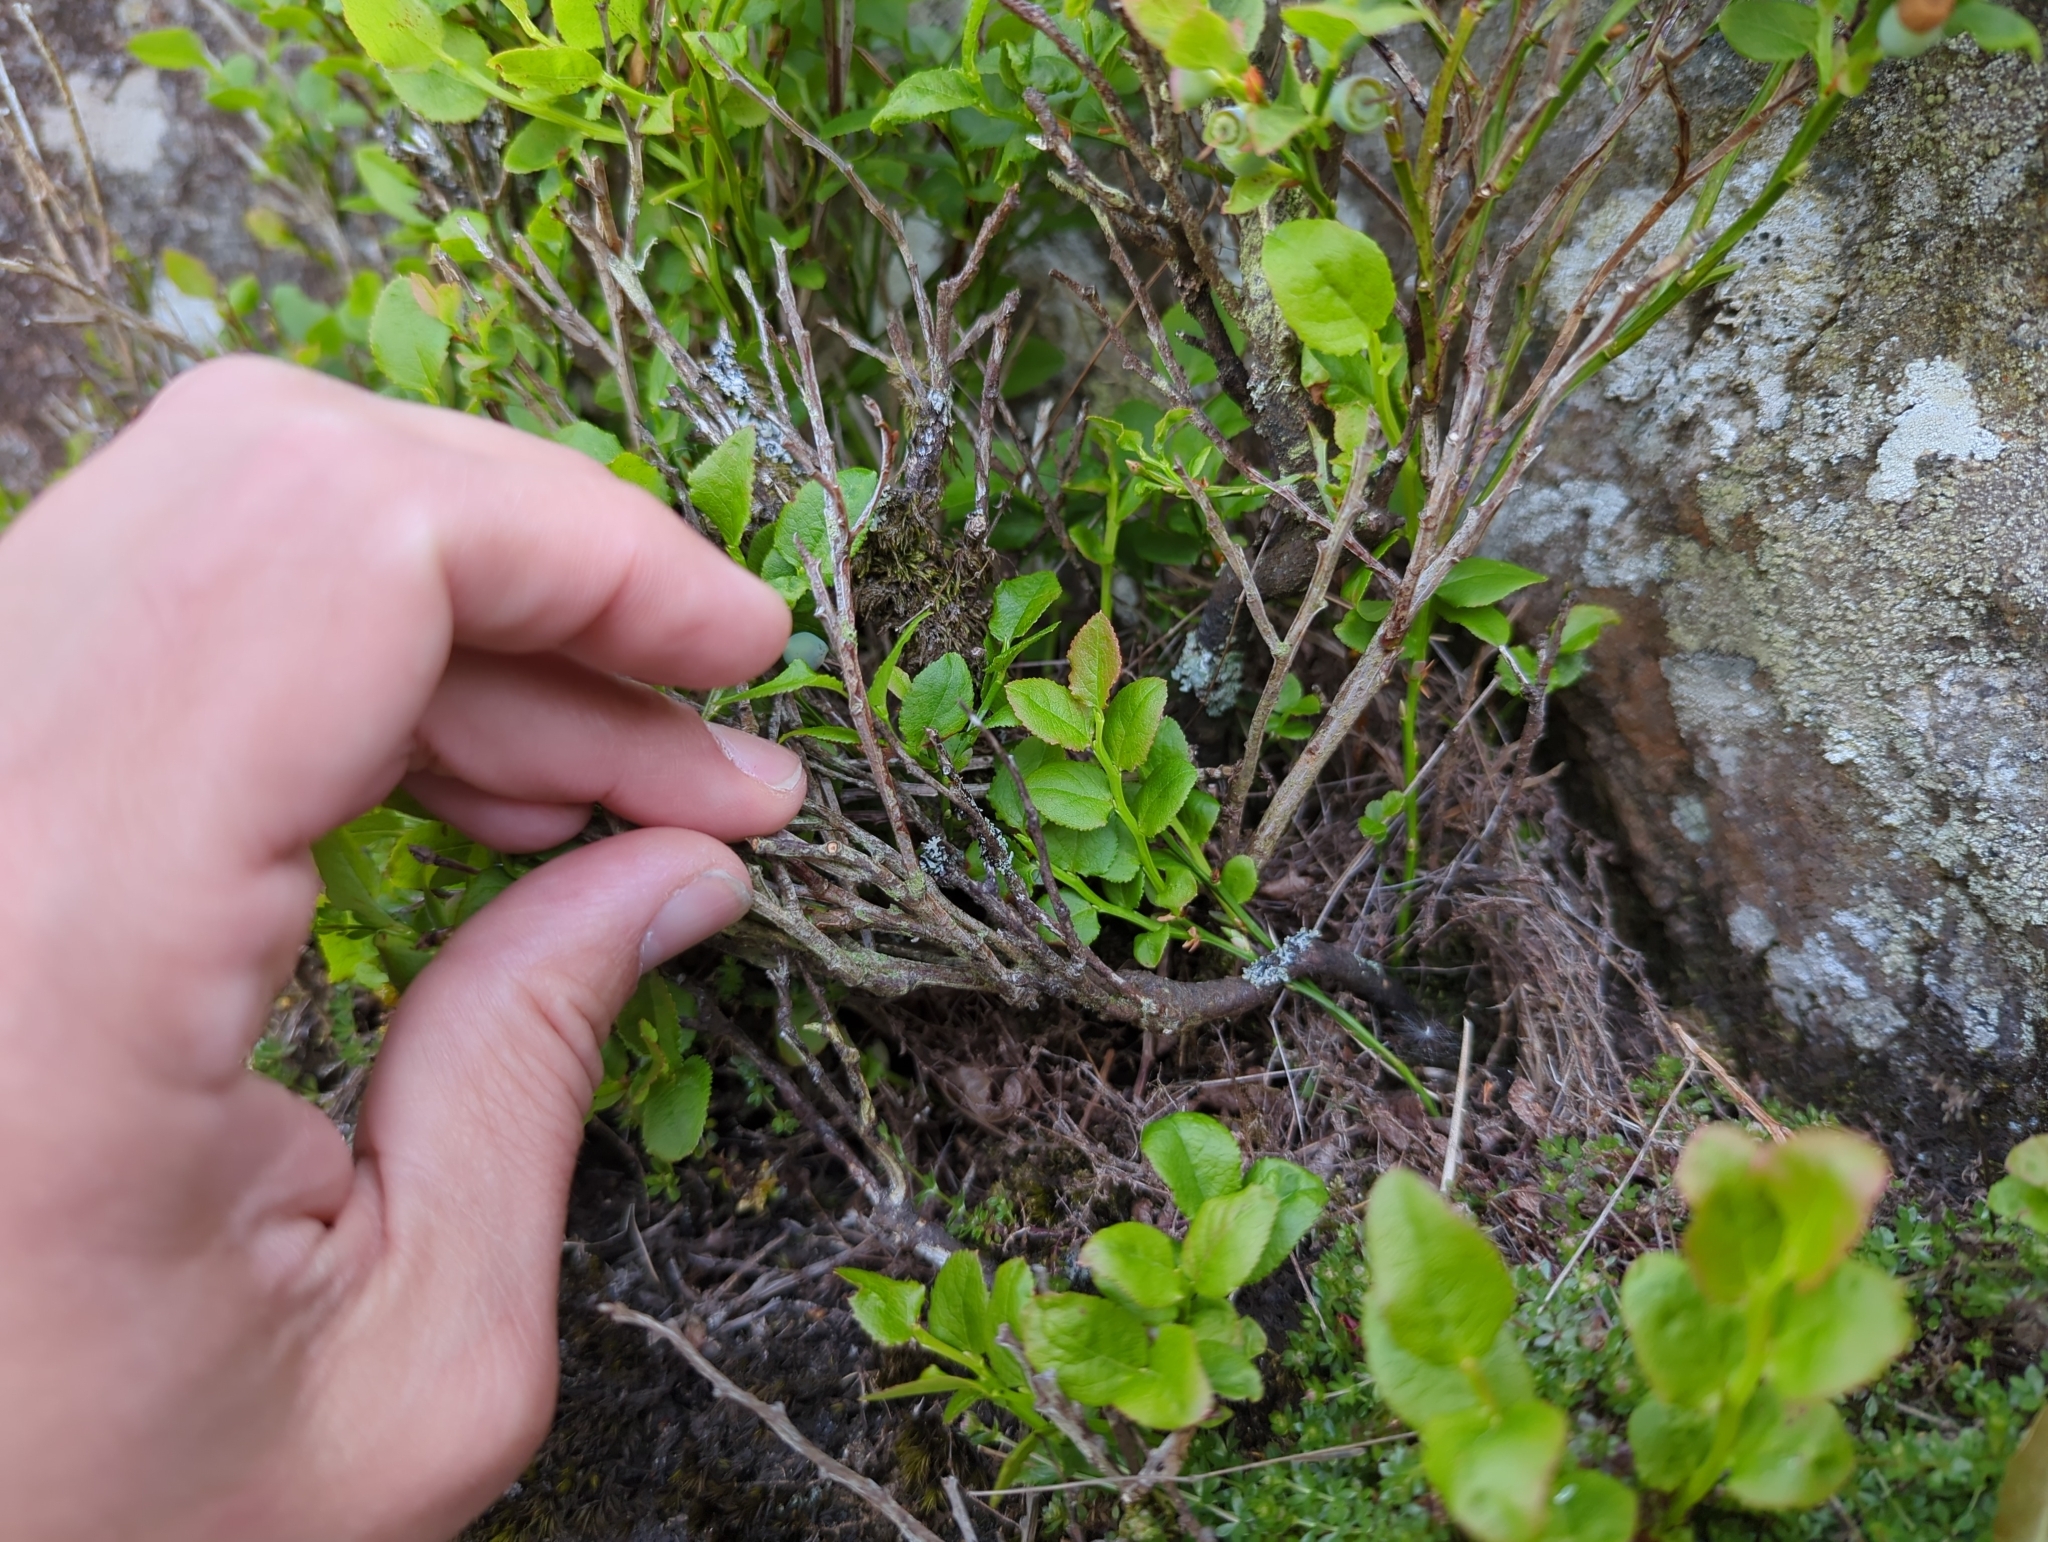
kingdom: Plantae
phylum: Tracheophyta
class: Magnoliopsida
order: Ericales
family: Ericaceae
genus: Vaccinium
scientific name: Vaccinium myrtillus
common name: Bilberry
